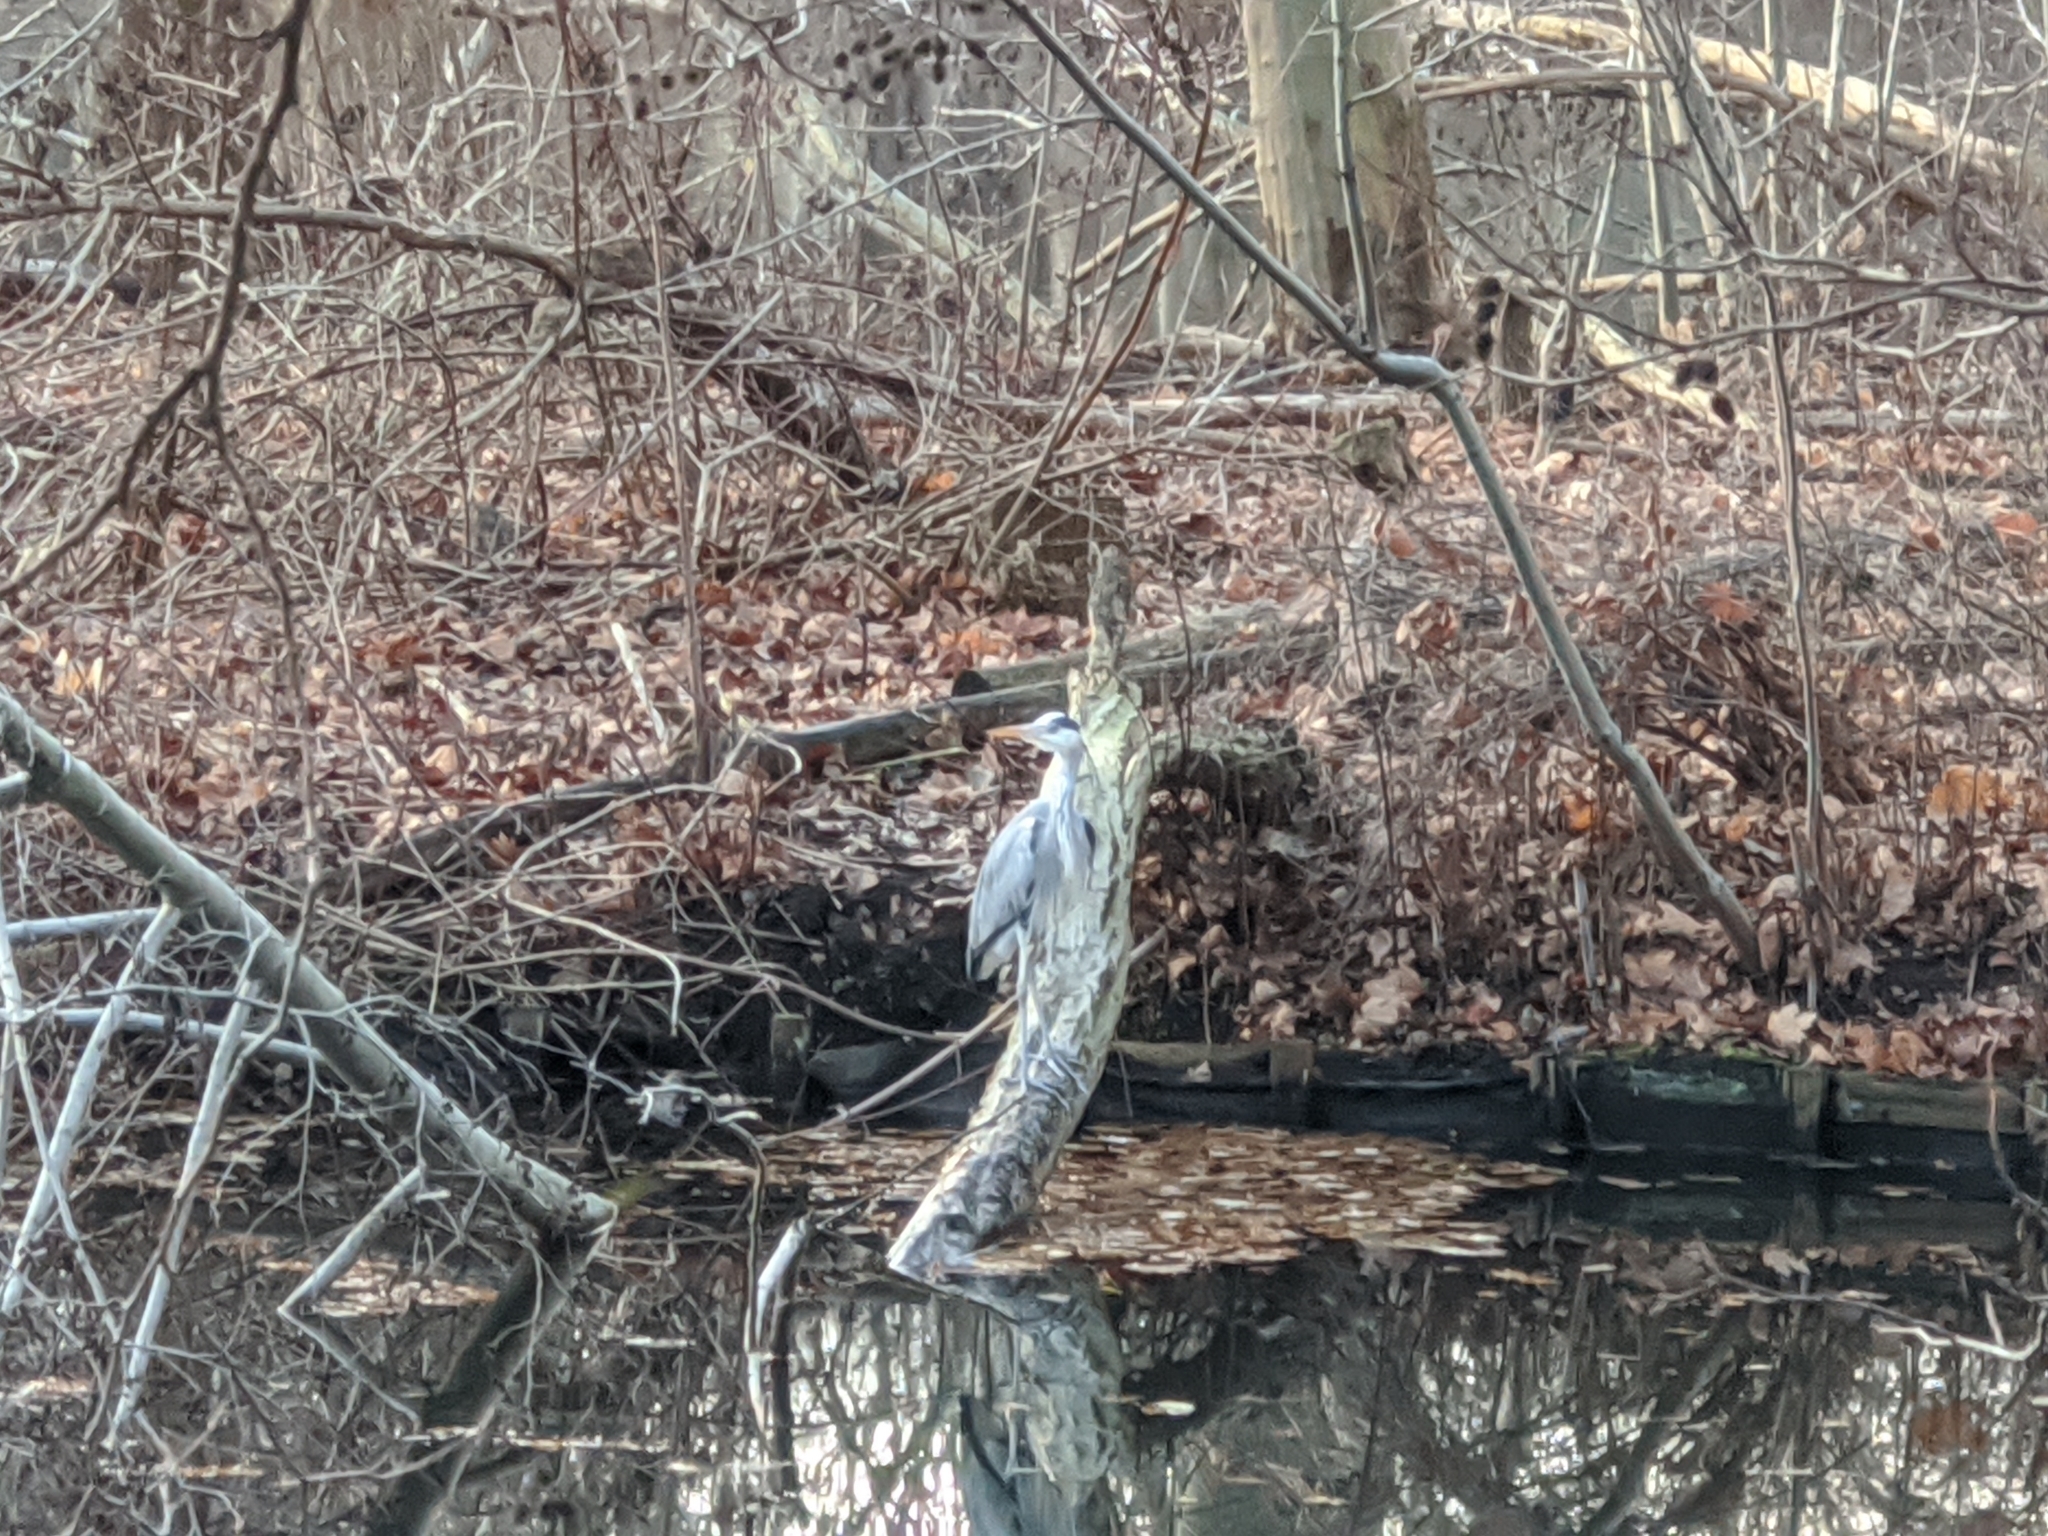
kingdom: Animalia
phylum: Chordata
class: Aves
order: Pelecaniformes
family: Ardeidae
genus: Ardea
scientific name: Ardea cinerea
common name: Grey heron
